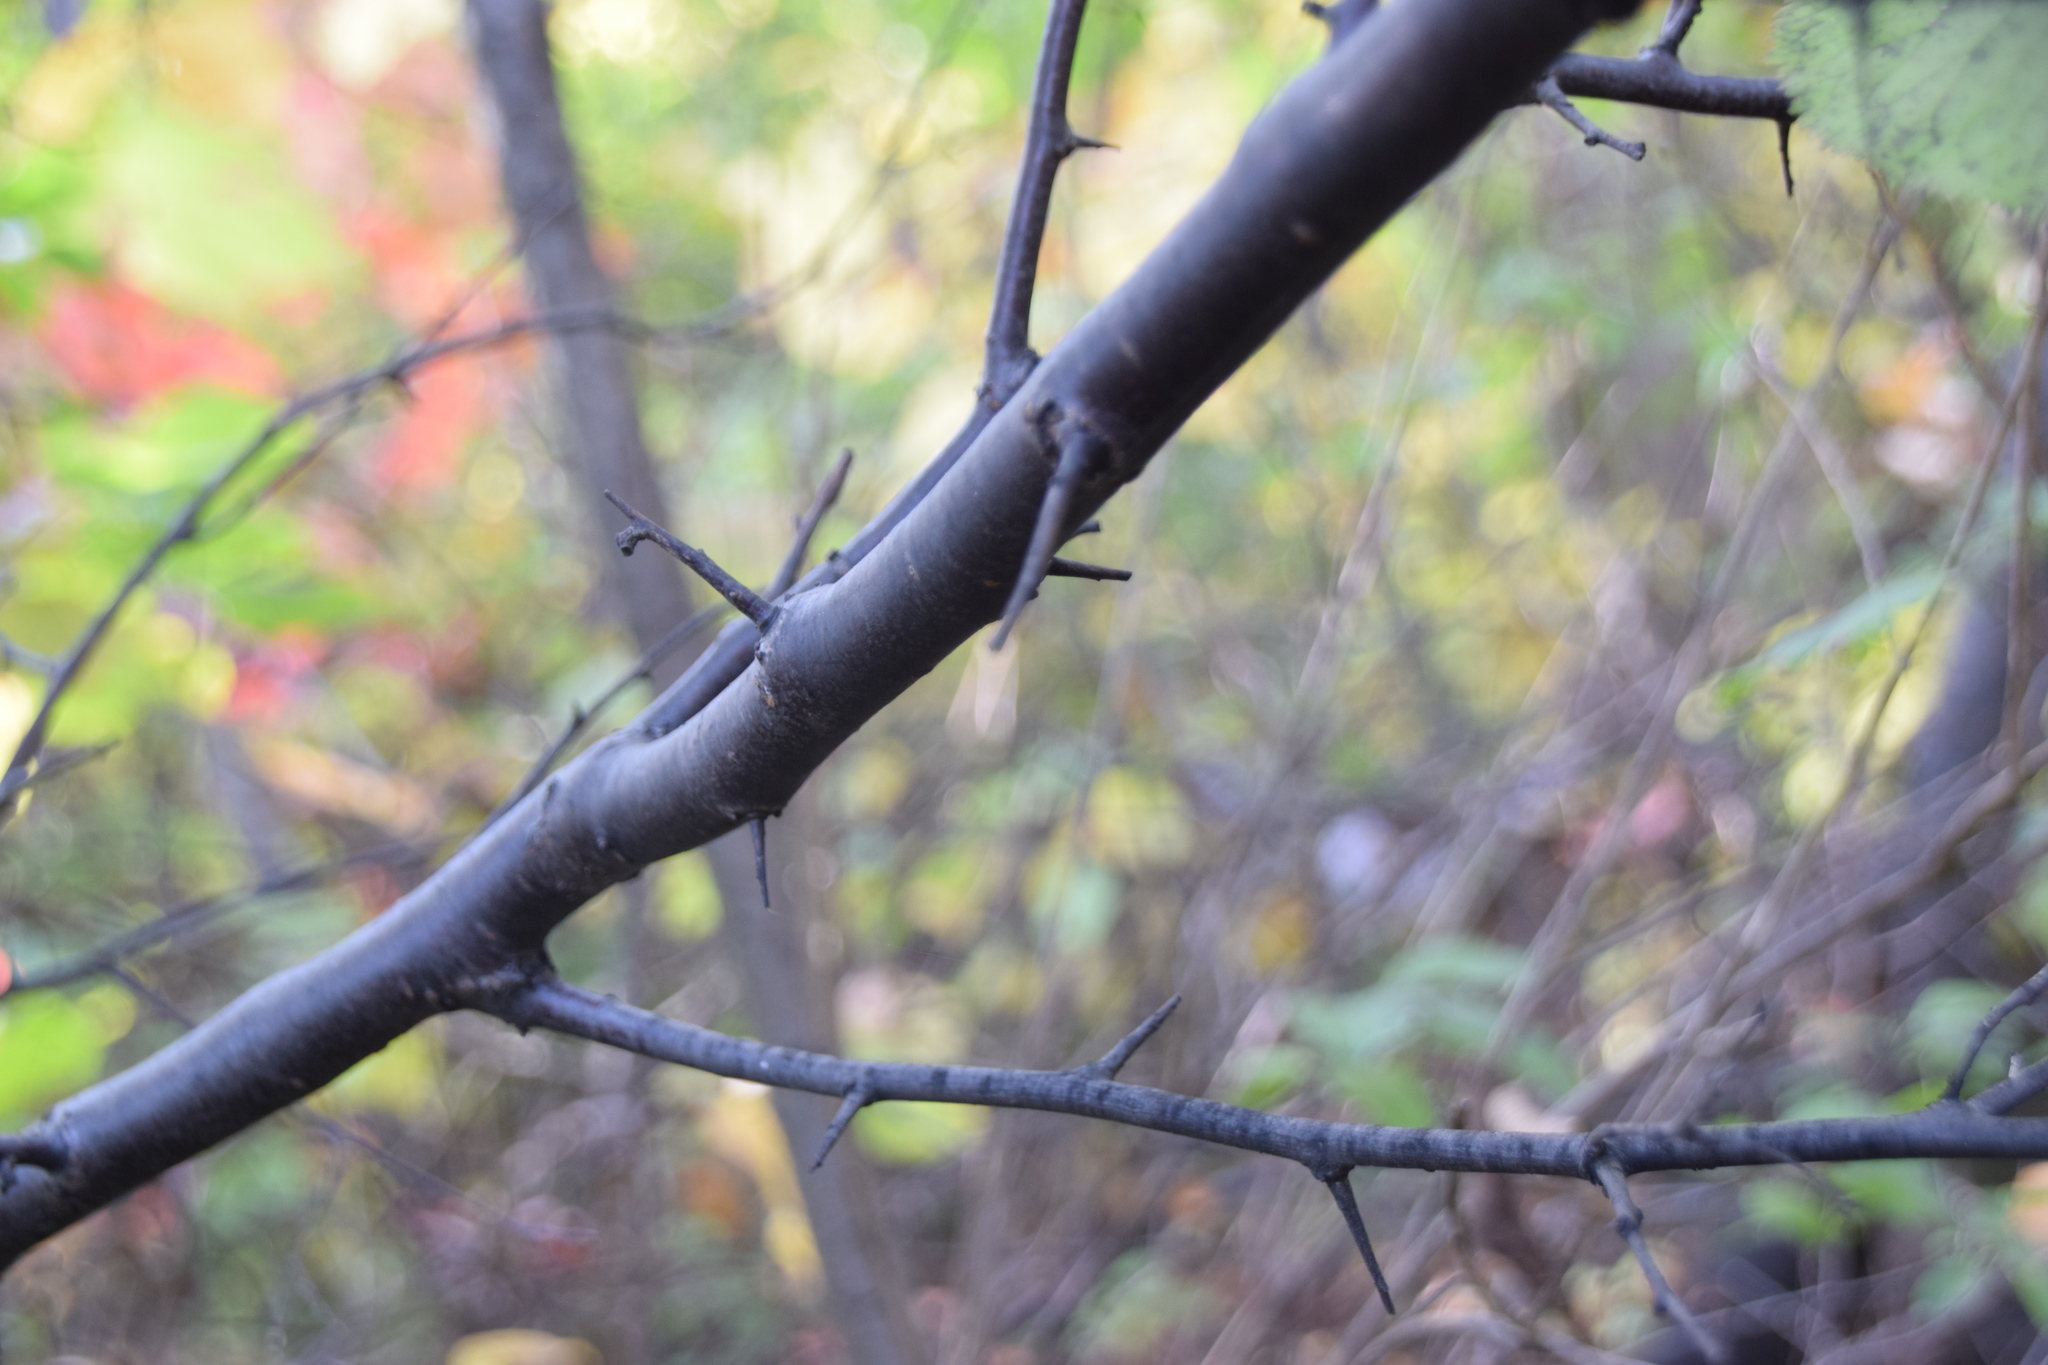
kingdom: Plantae
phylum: Tracheophyta
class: Magnoliopsida
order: Rosales
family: Rosaceae
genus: Prunus
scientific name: Prunus nigra
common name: Black plum
